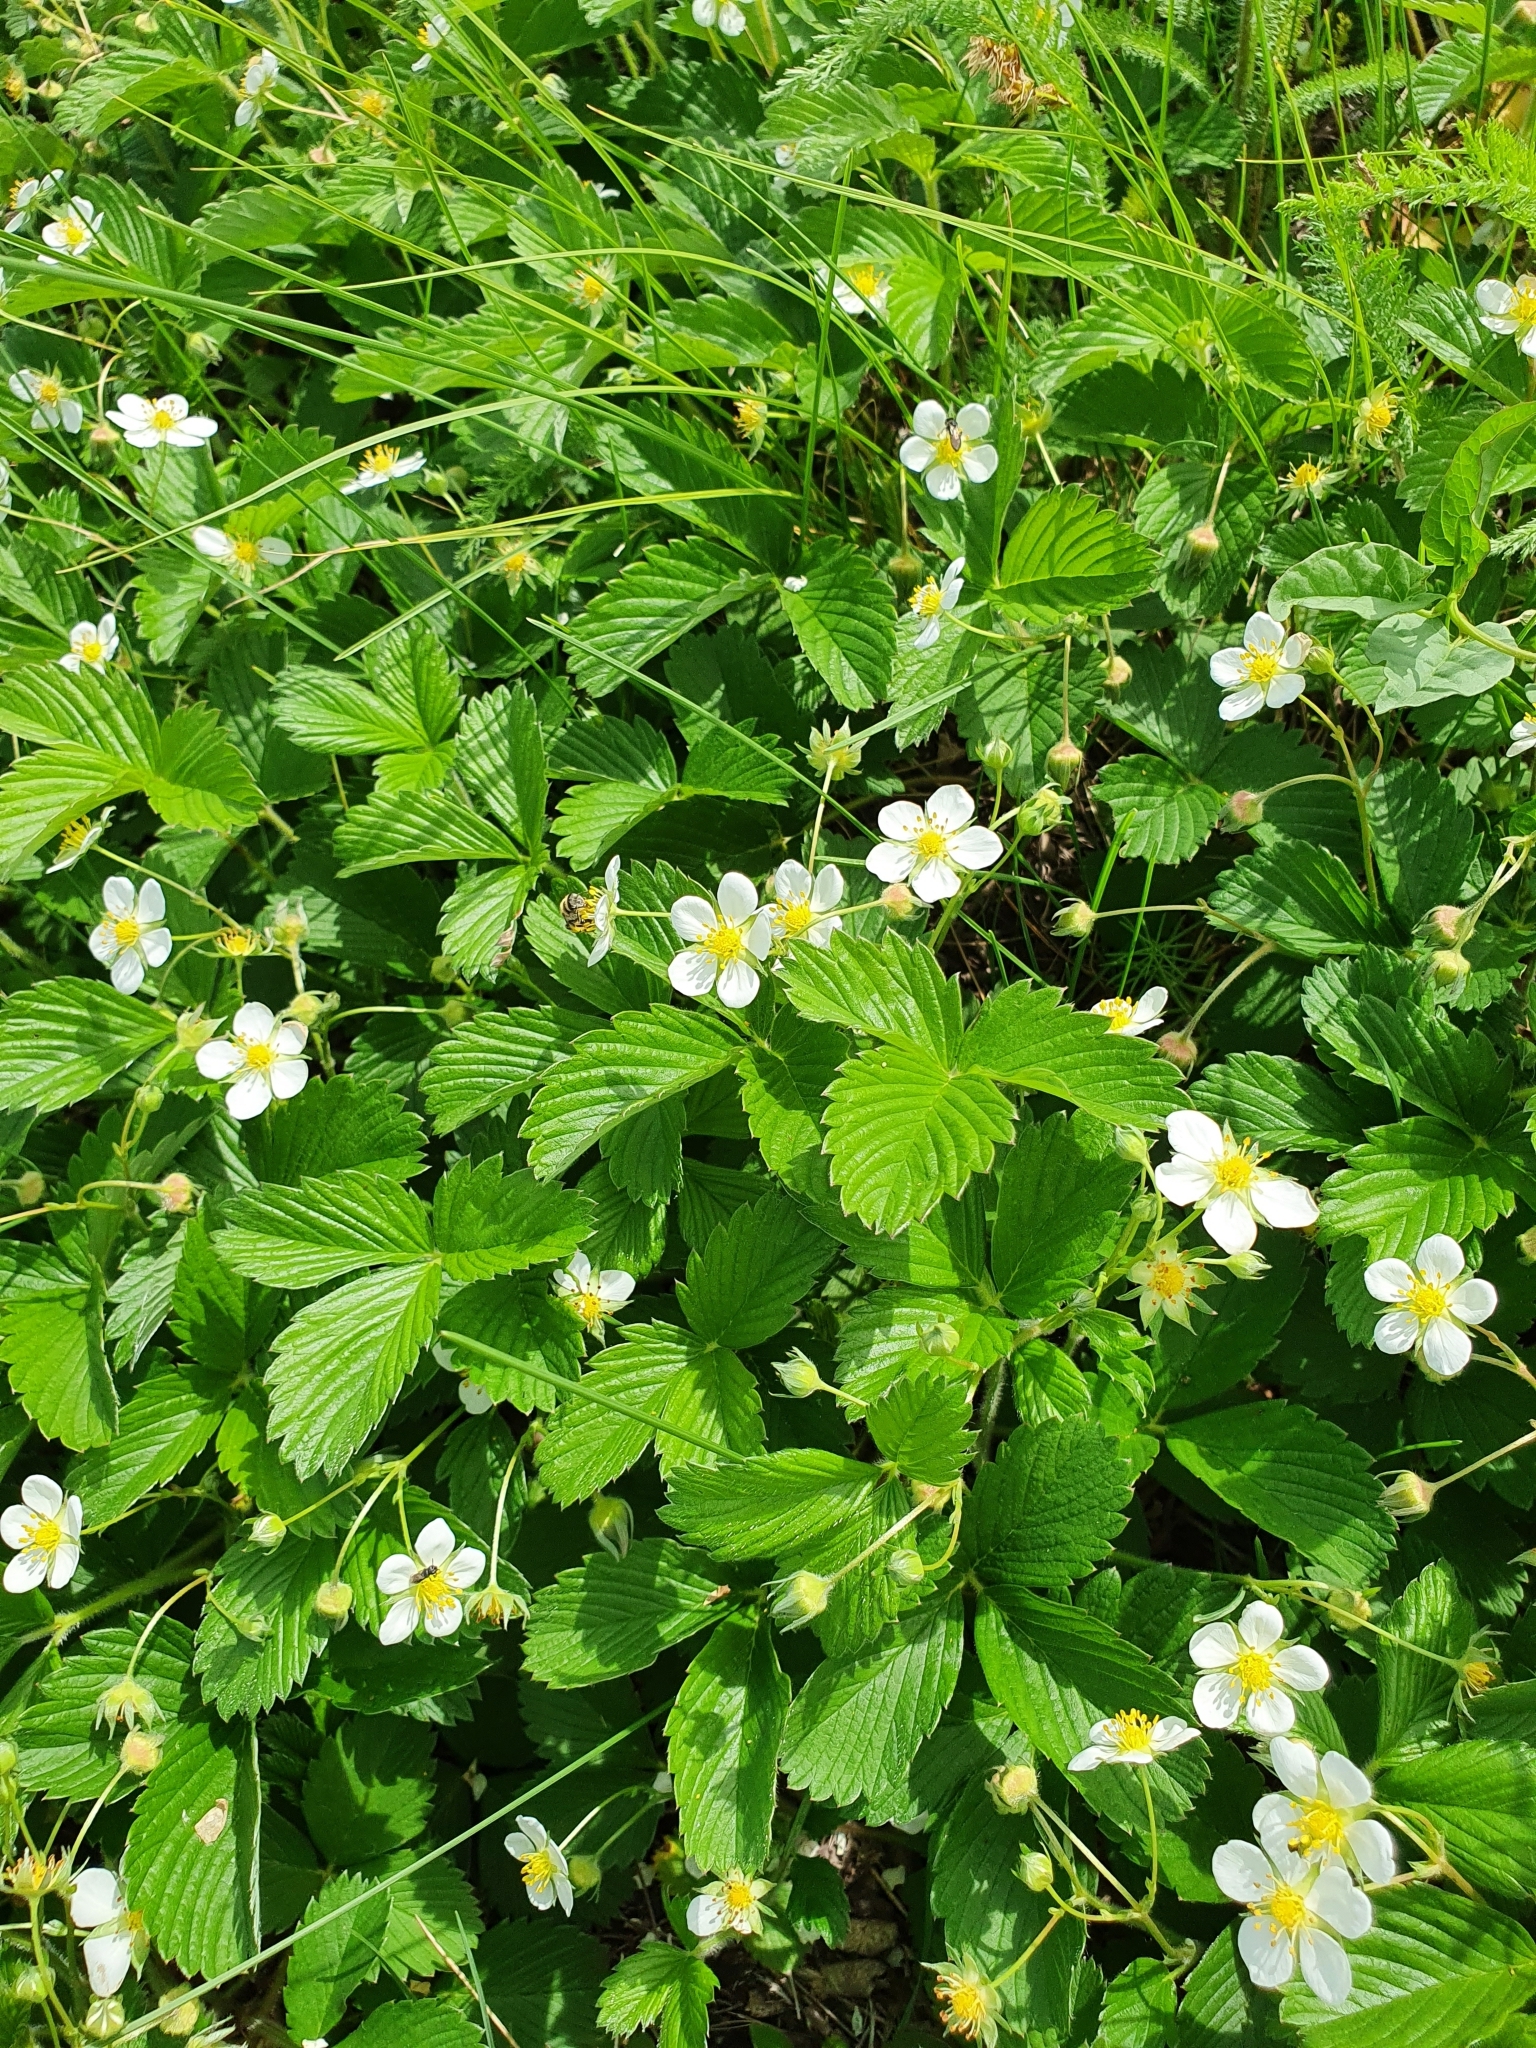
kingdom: Plantae
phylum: Tracheophyta
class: Magnoliopsida
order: Rosales
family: Rosaceae
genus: Fragaria
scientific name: Fragaria vesca
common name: Wild strawberry
